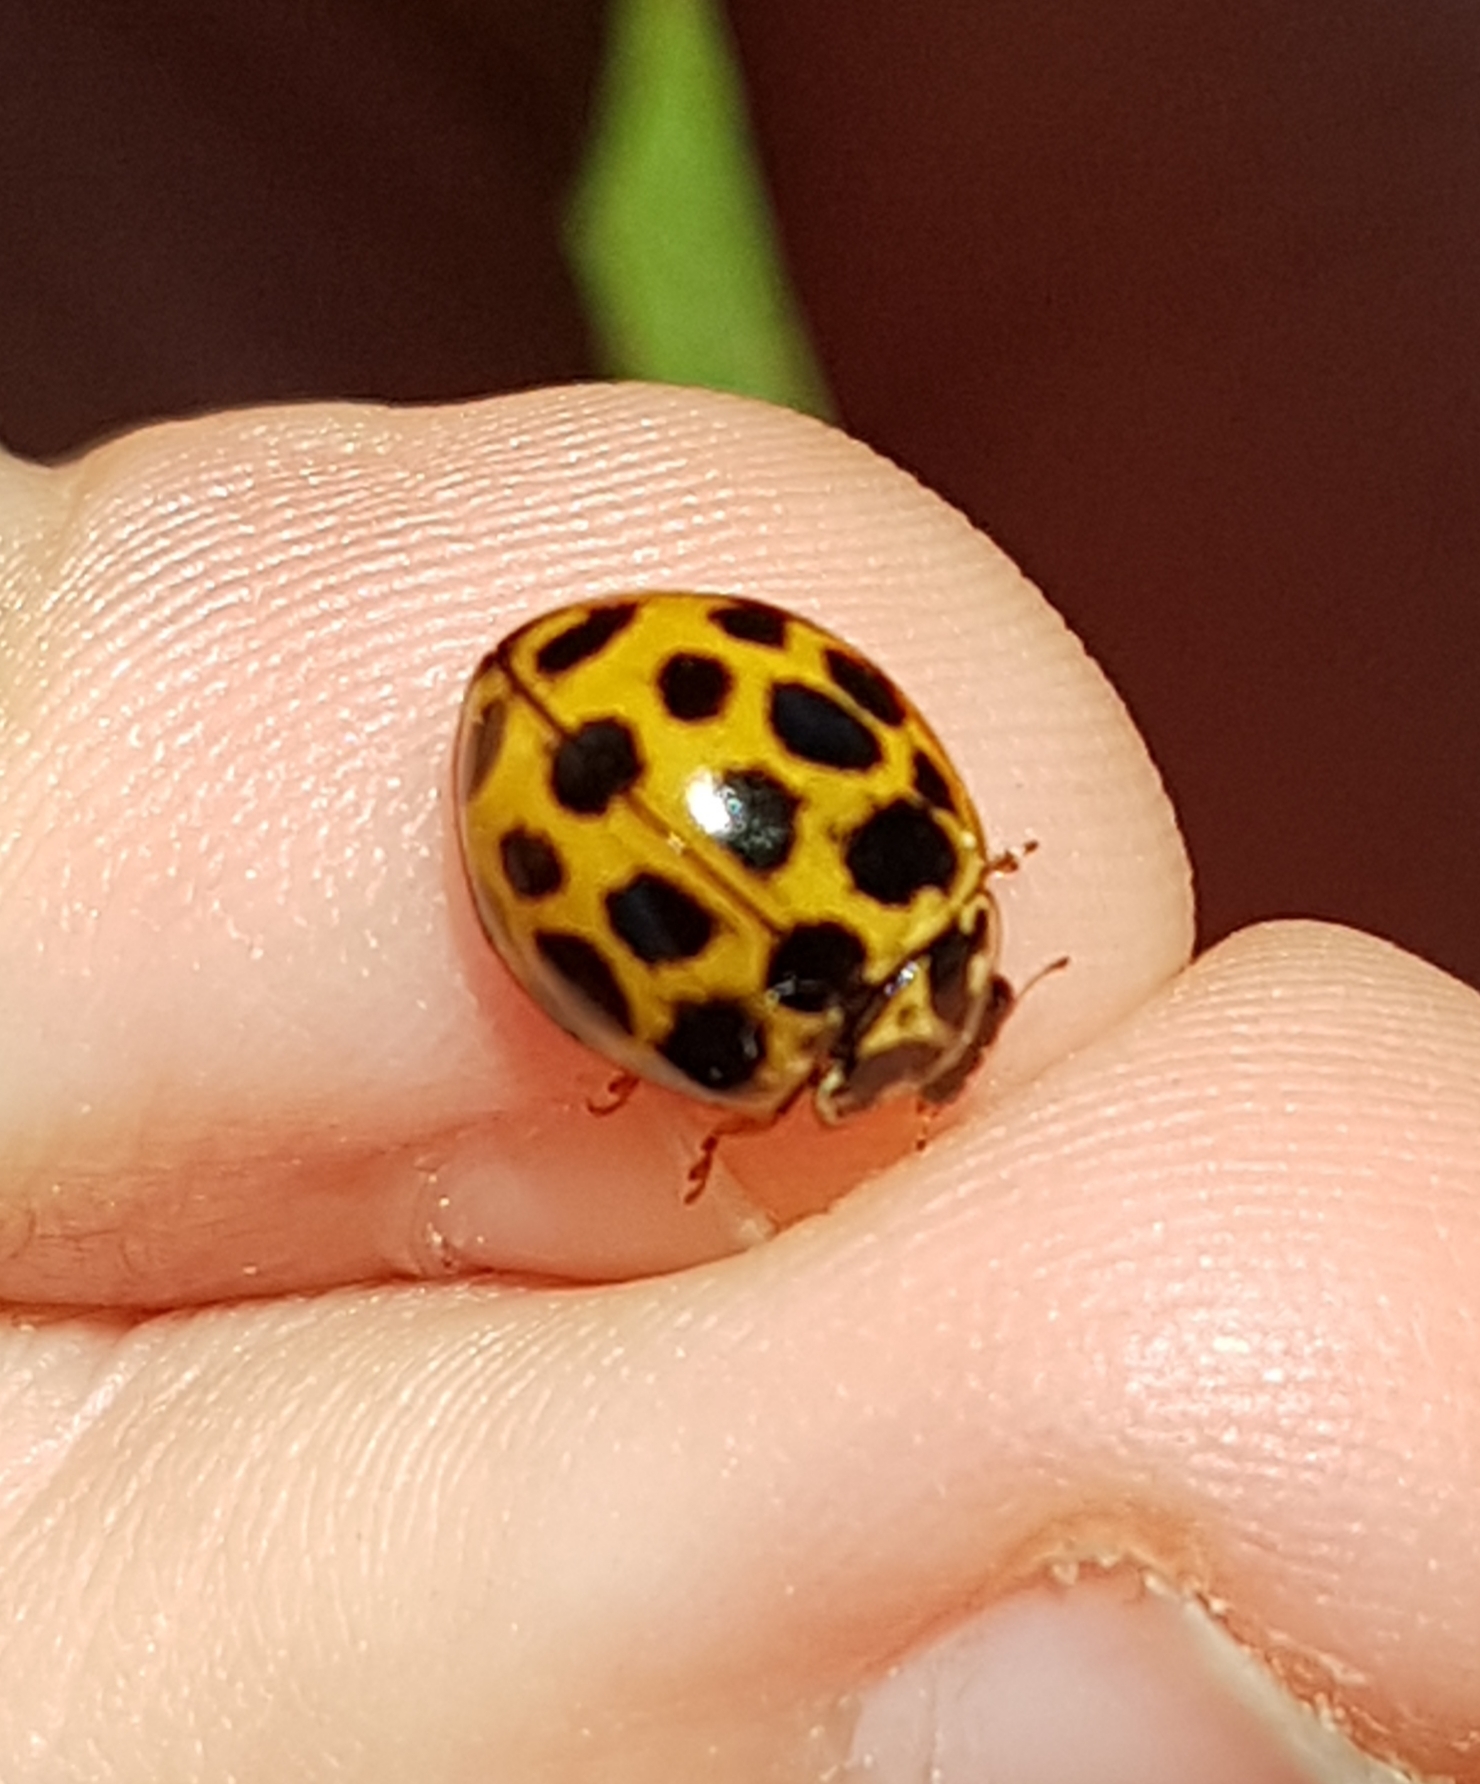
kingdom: Animalia
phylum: Arthropoda
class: Insecta
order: Coleoptera
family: Coccinellidae
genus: Harmonia
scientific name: Harmonia conformis
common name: Common spotted ladybird beetle
